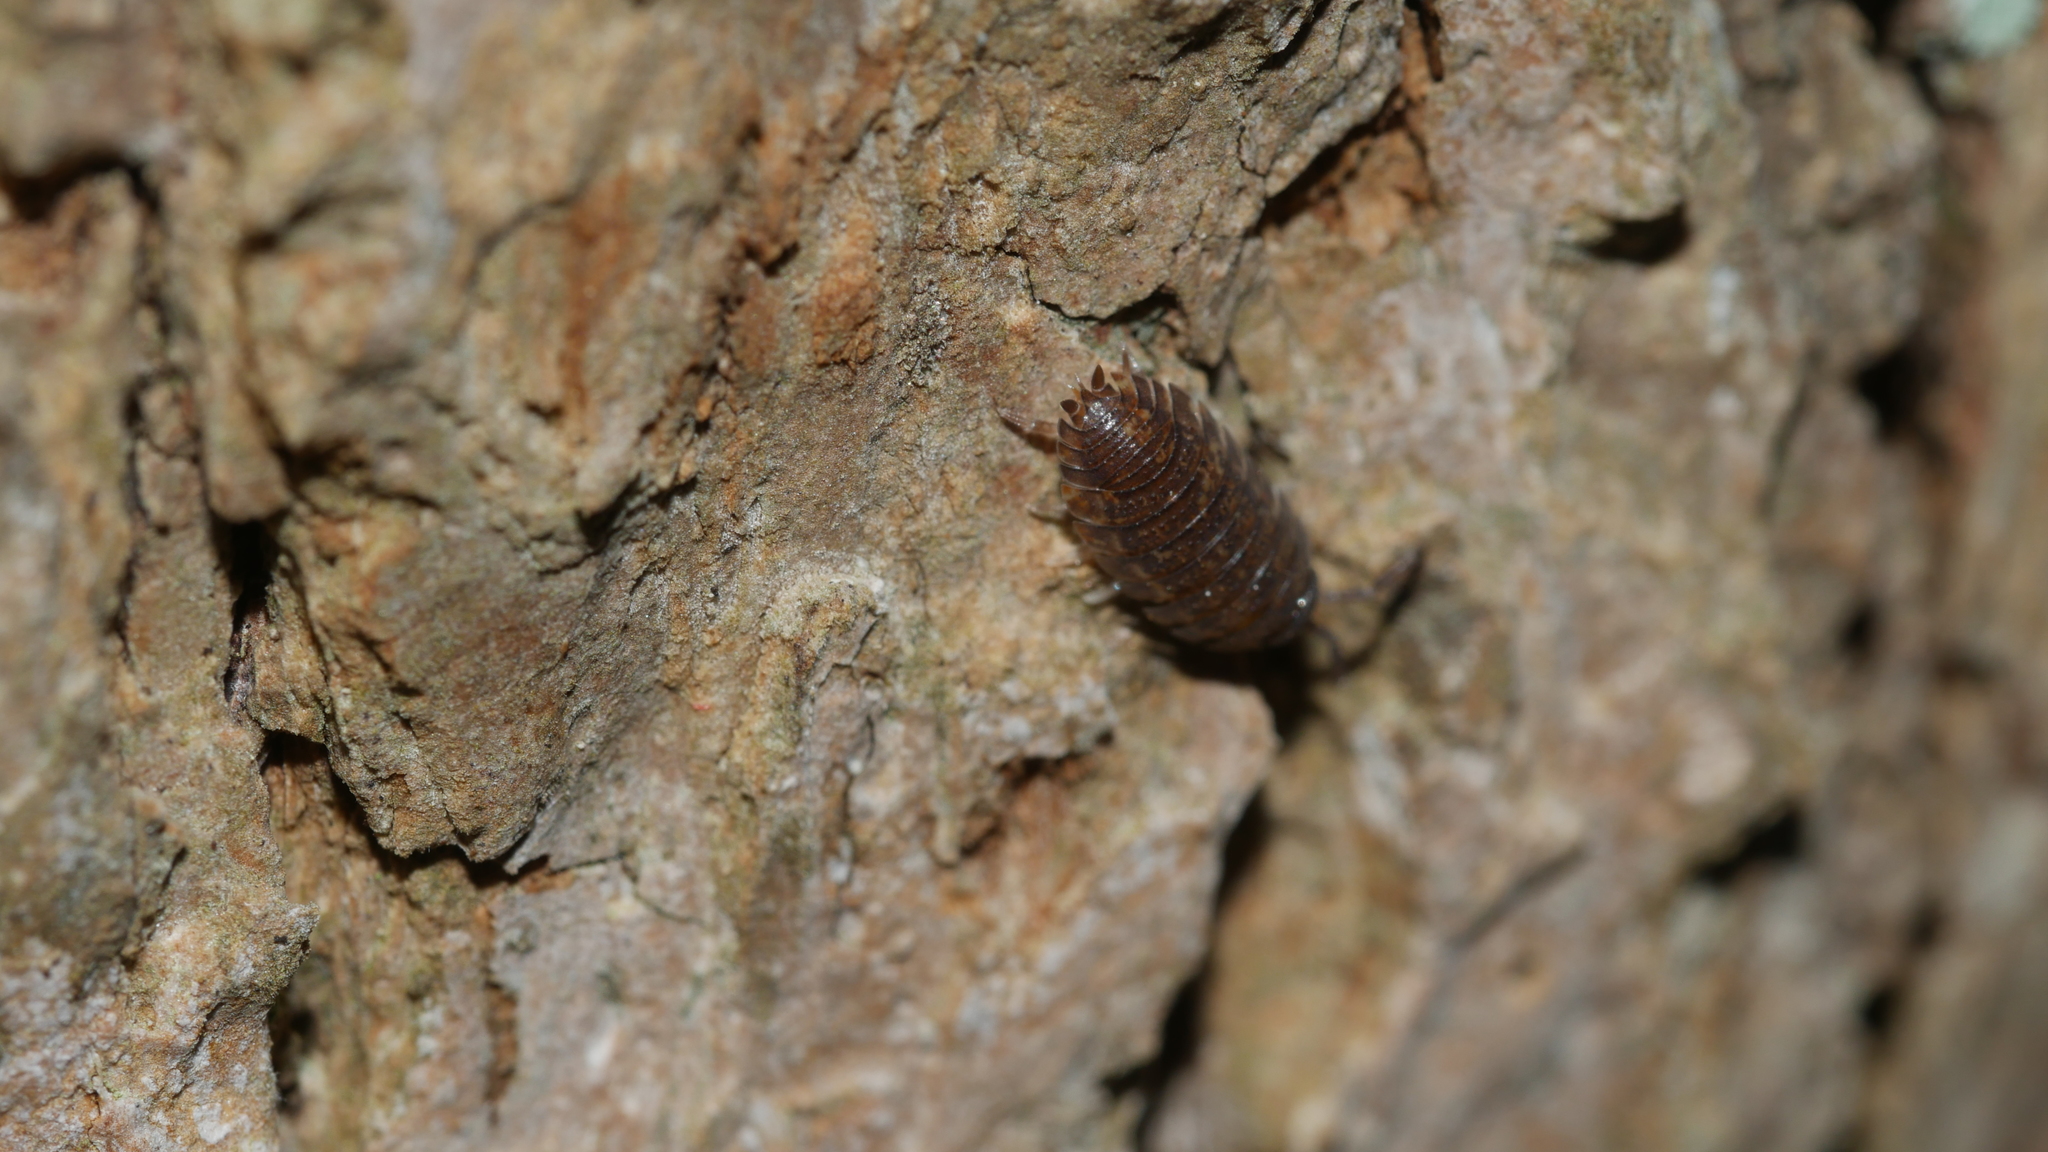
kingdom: Animalia
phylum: Arthropoda
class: Malacostraca
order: Isopoda
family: Porcellionidae
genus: Porcellio
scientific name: Porcellio scaber
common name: Common rough woodlouse
